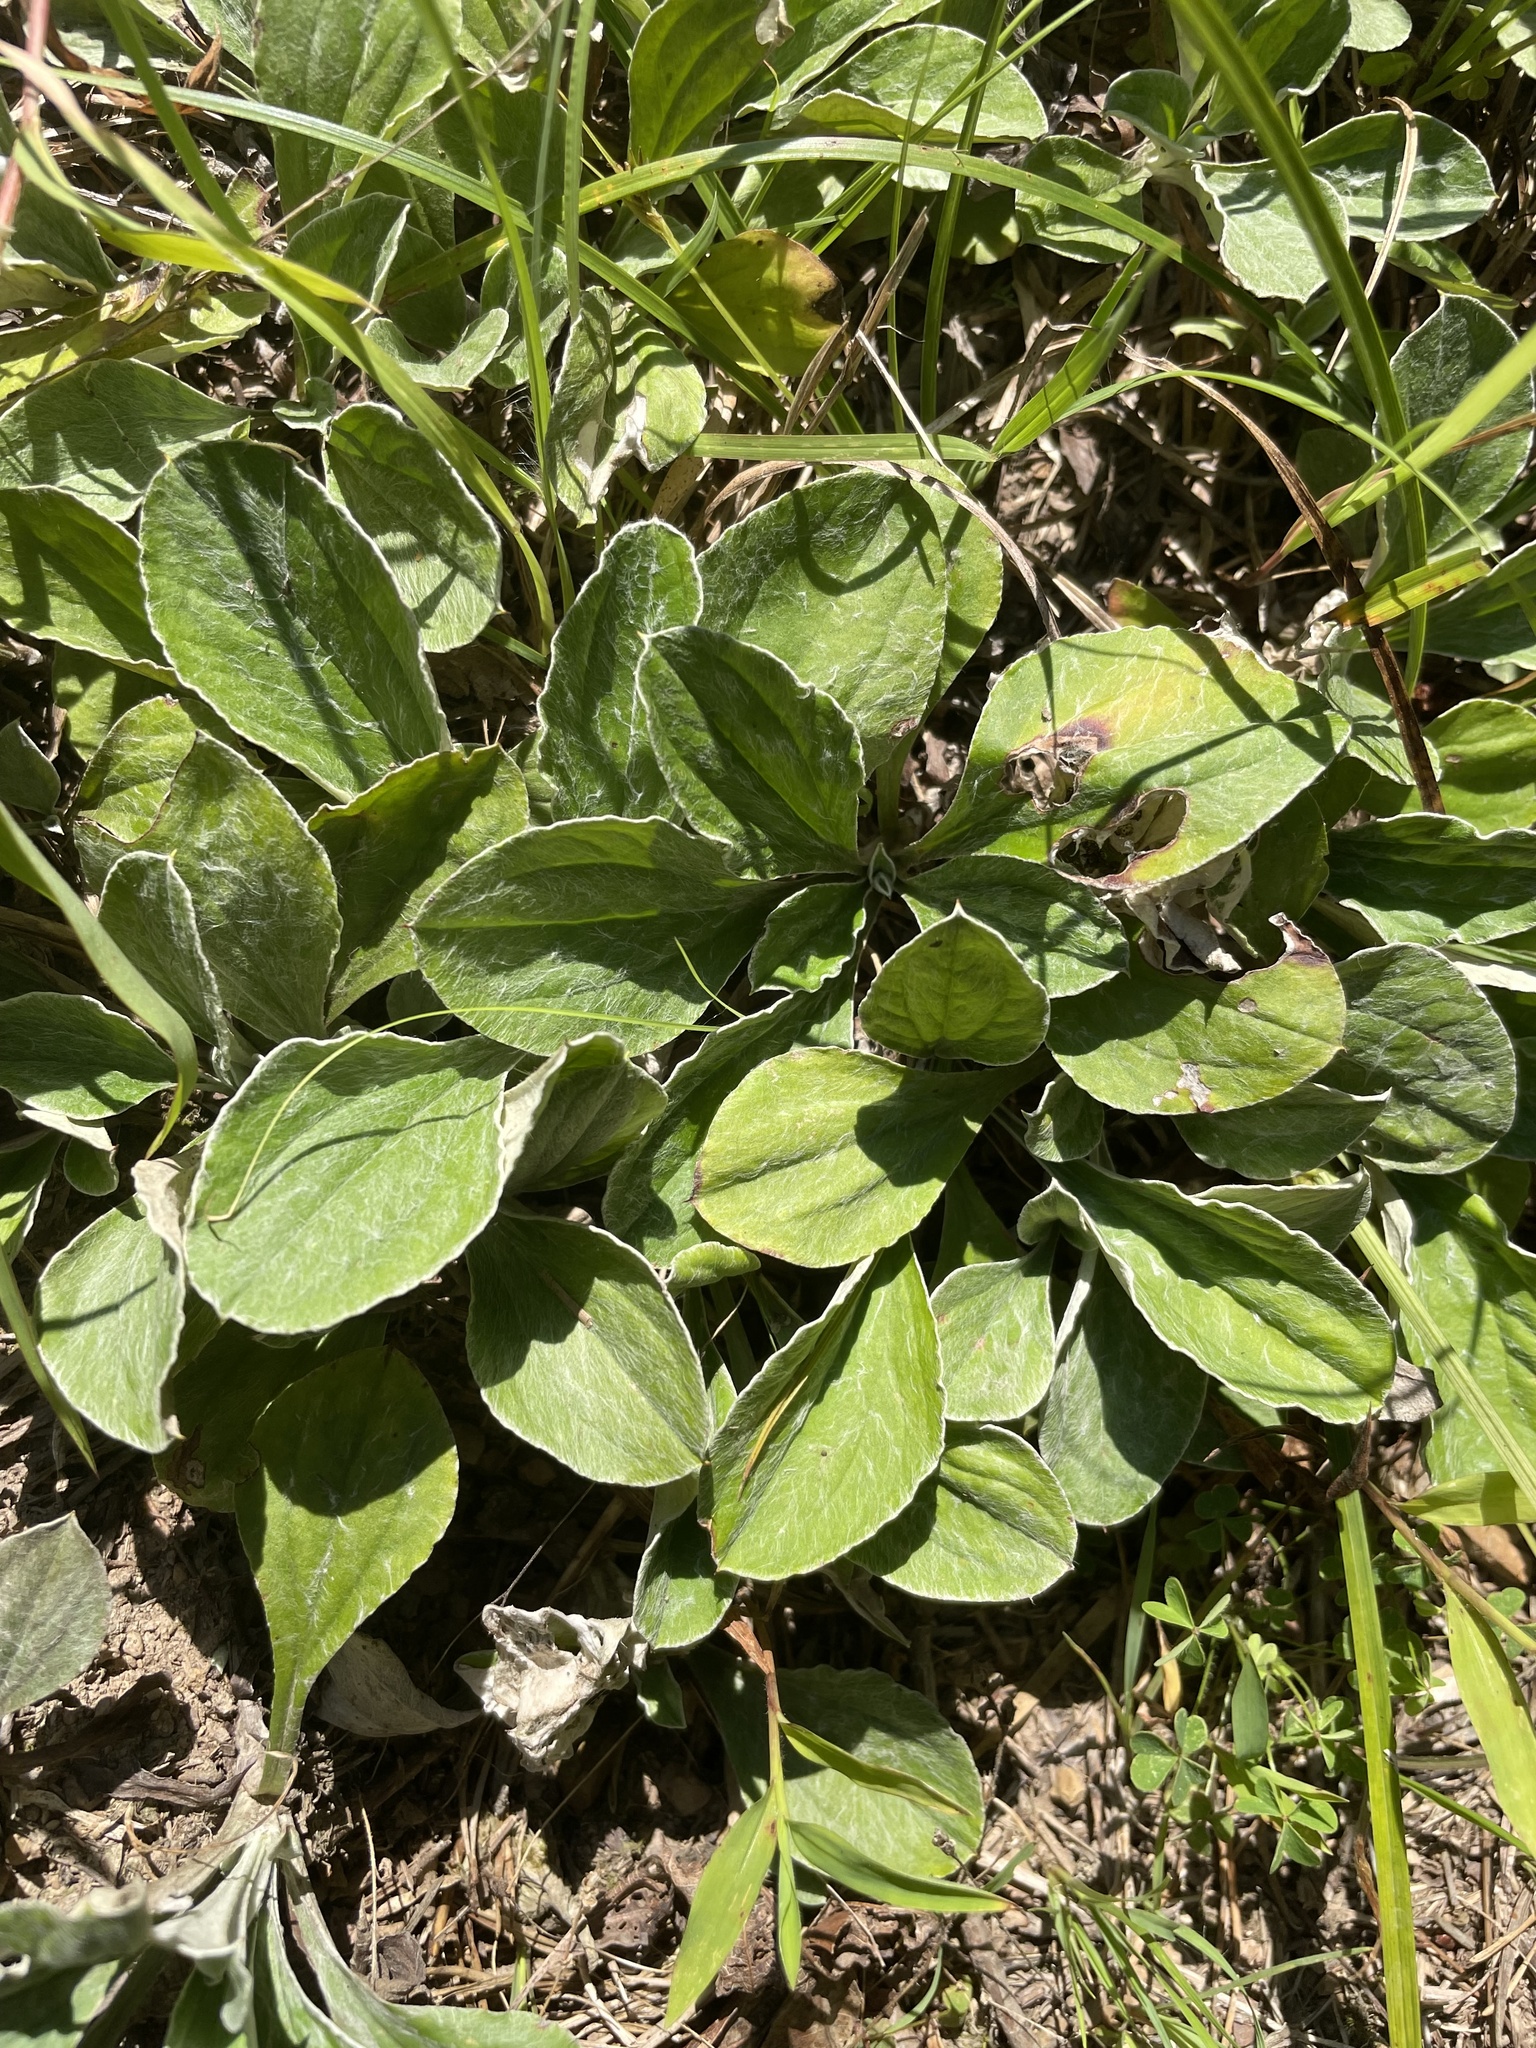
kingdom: Plantae
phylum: Tracheophyta
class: Magnoliopsida
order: Asterales
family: Asteraceae
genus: Antennaria
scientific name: Antennaria plantaginifolia
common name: Plantain-leaved pussytoes
